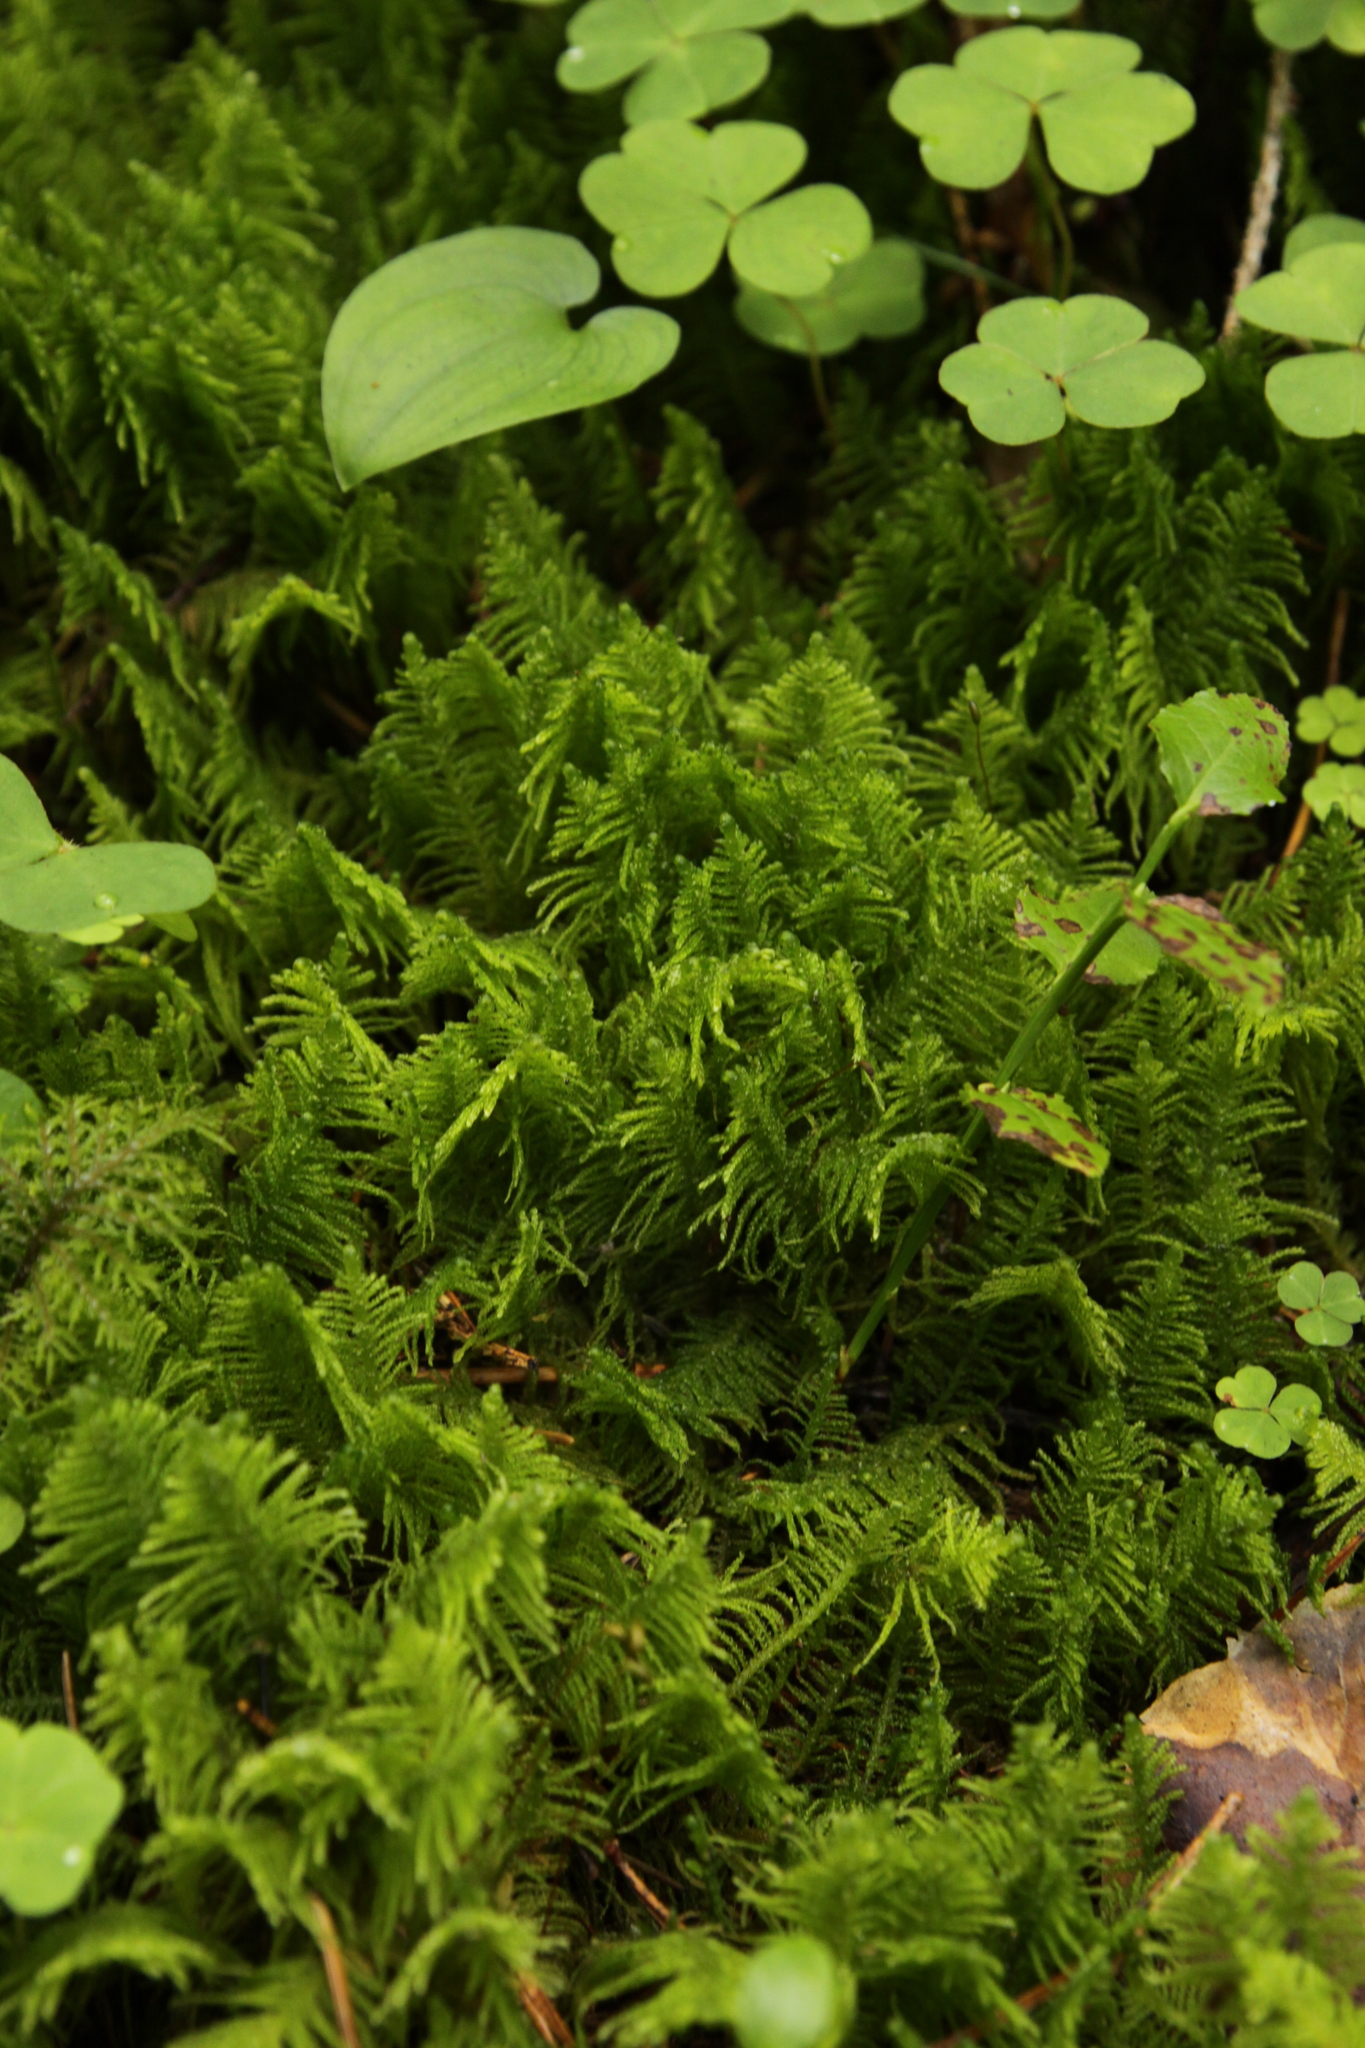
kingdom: Plantae
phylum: Bryophyta
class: Bryopsida
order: Hypnales
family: Pylaisiaceae
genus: Ptilium
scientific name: Ptilium crista-castrensis
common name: Knight's plume moss
